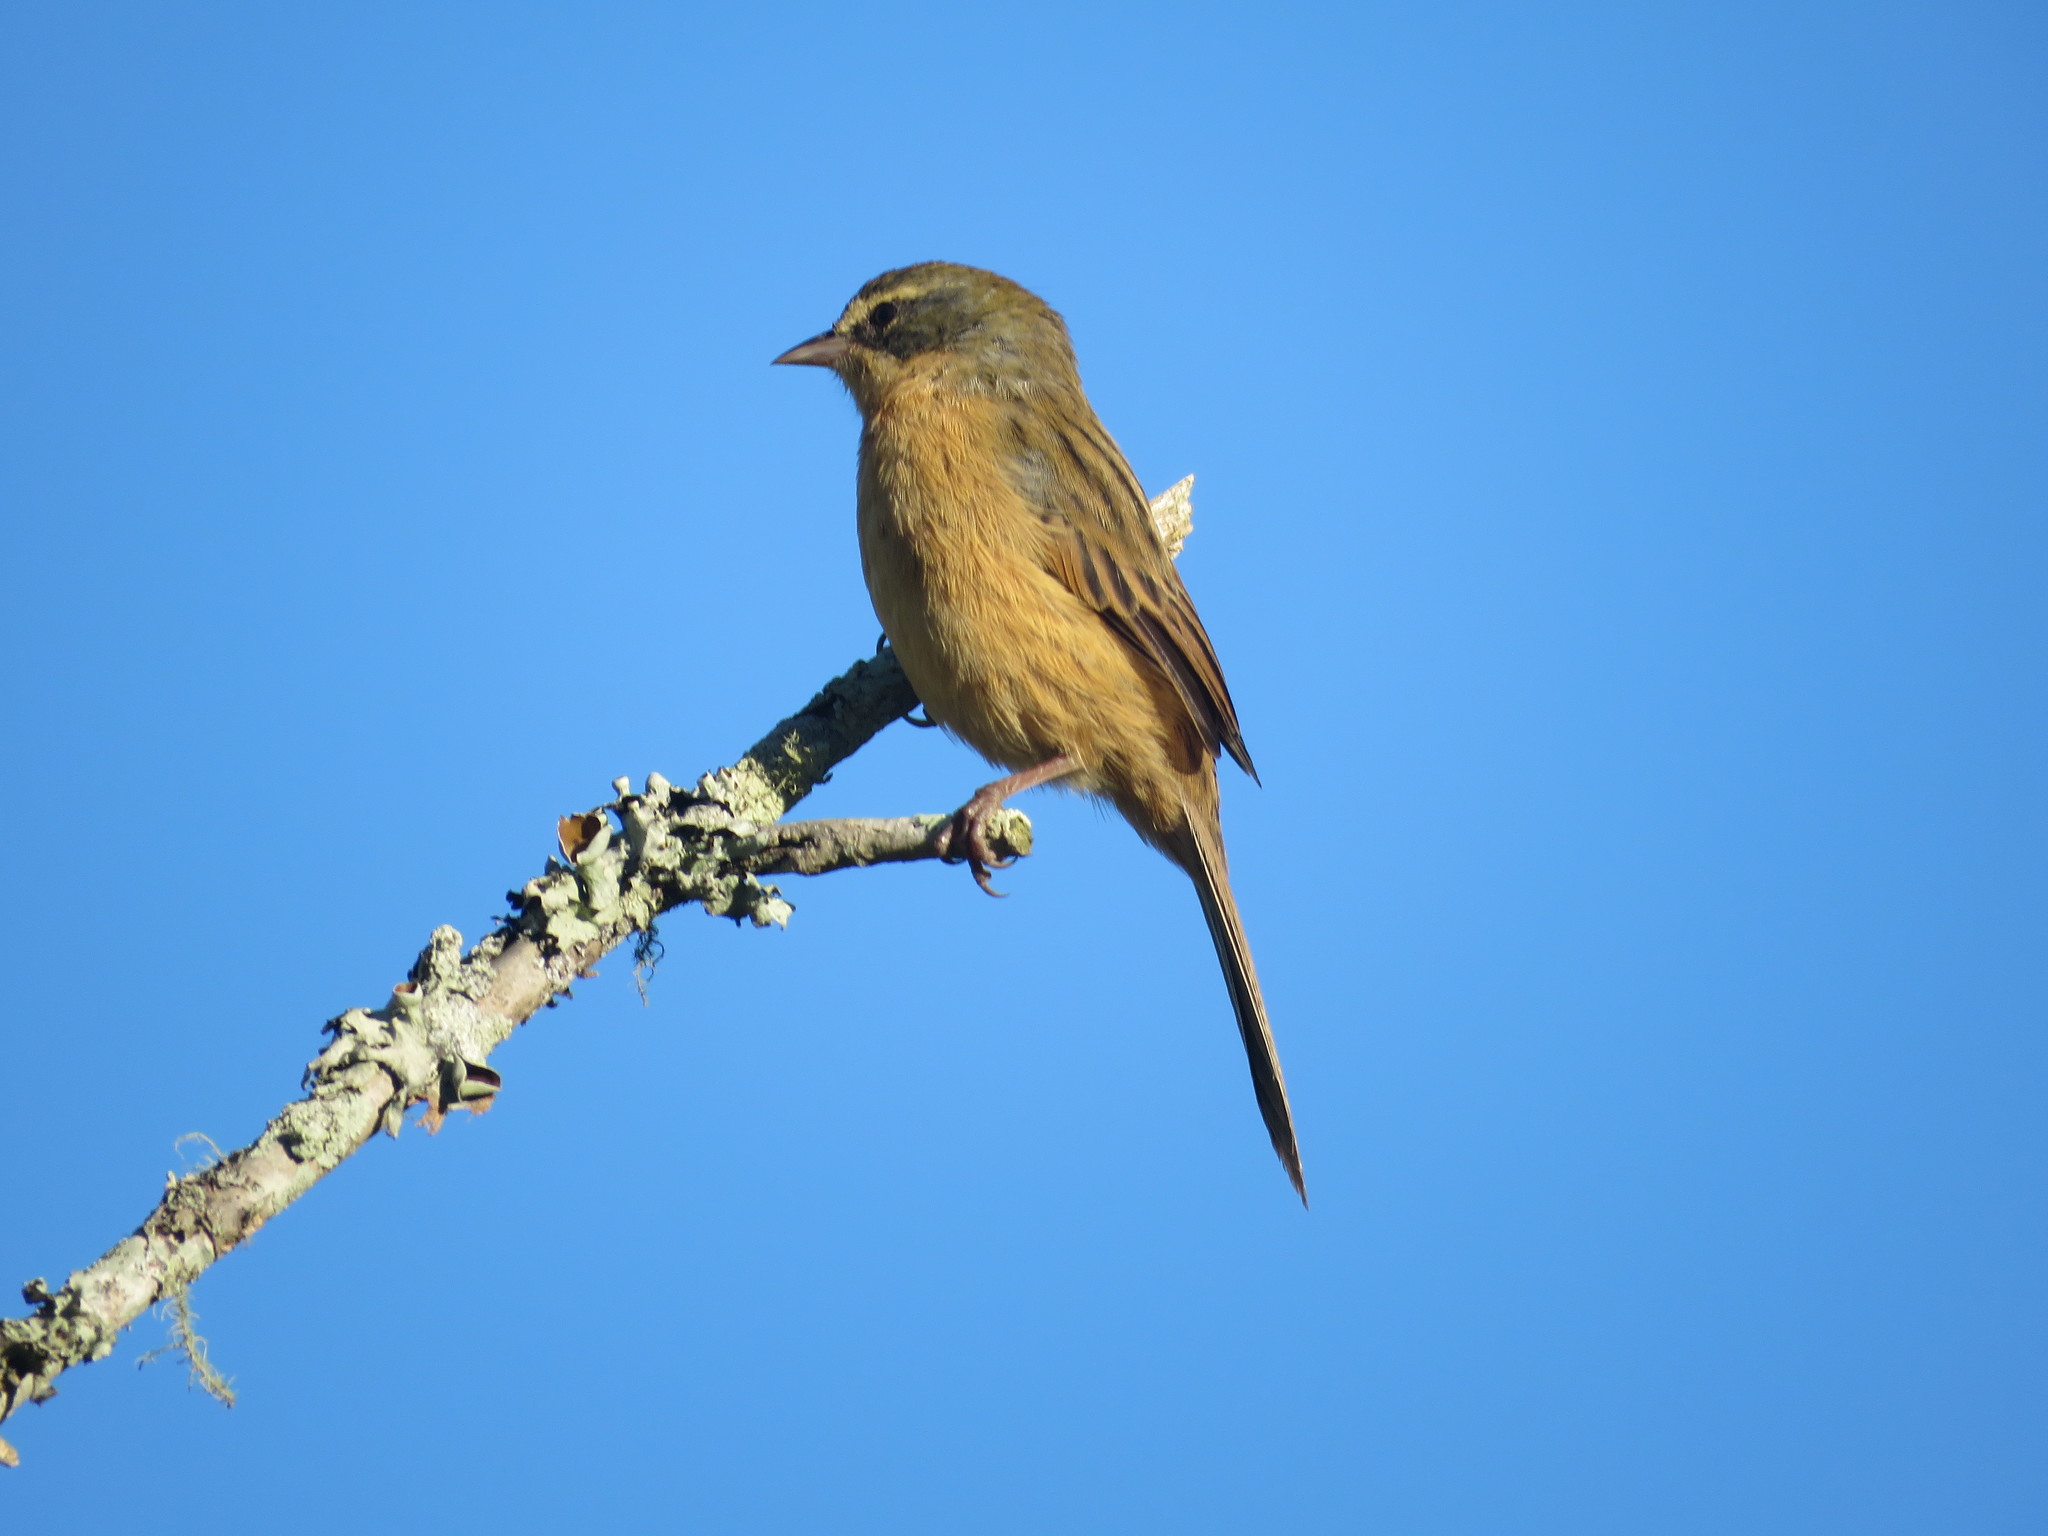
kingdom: Animalia
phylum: Chordata
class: Aves
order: Passeriformes
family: Thraupidae
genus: Donacospiza
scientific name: Donacospiza albifrons
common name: Long-tailed reed finch
